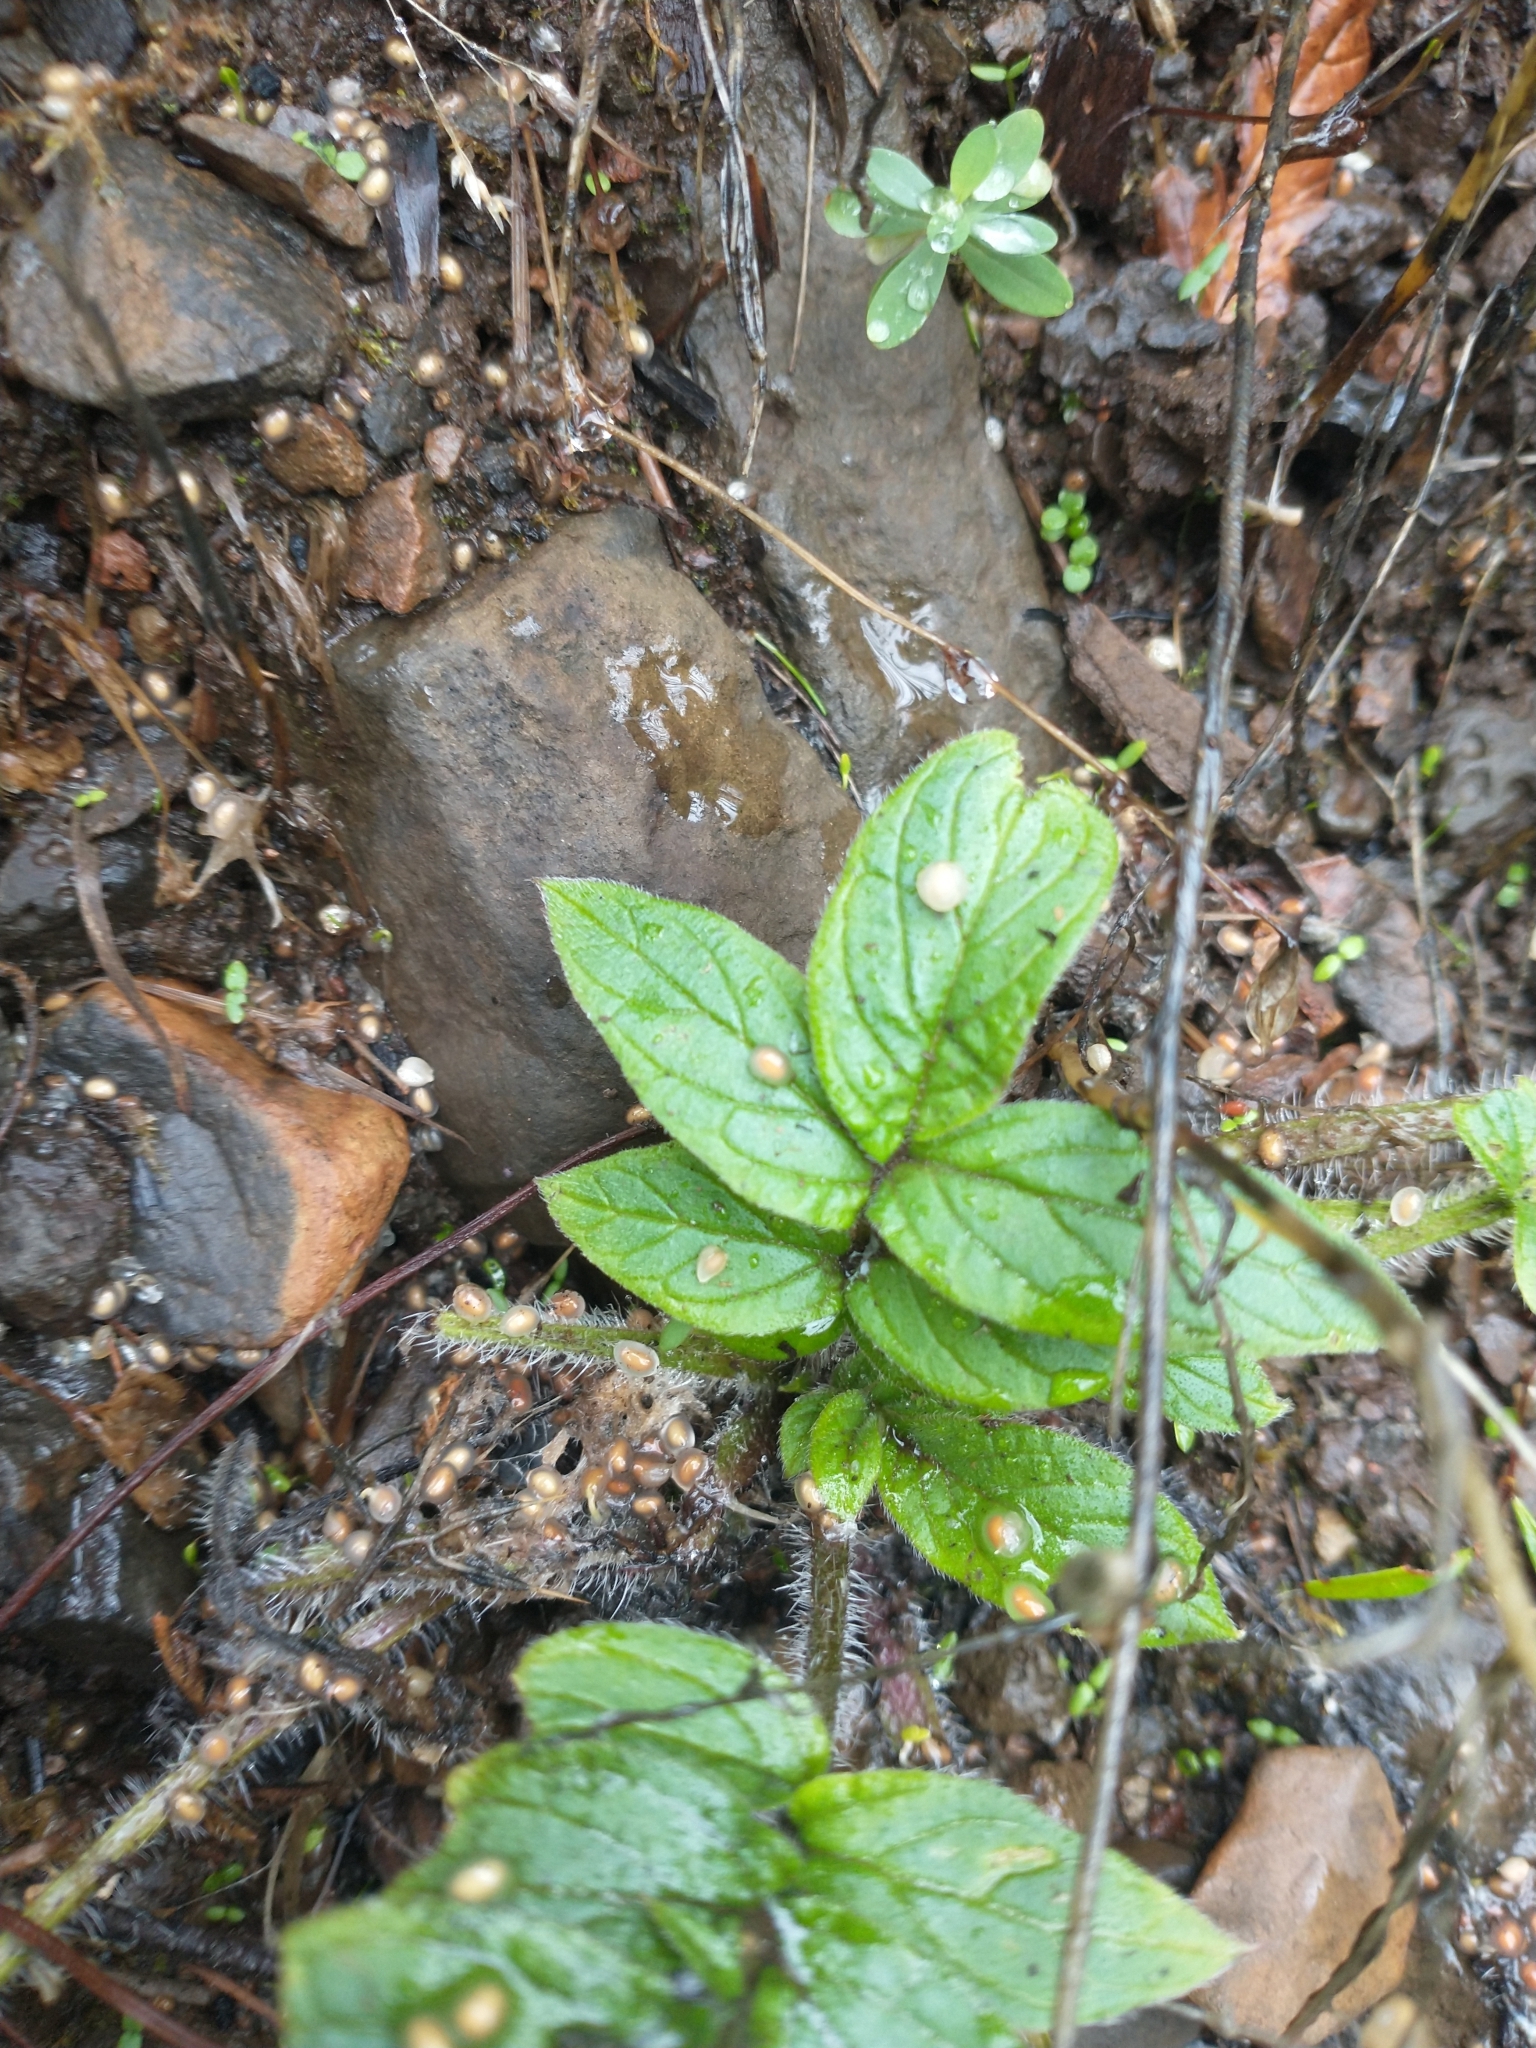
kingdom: Plantae
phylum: Tracheophyta
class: Magnoliopsida
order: Boraginales
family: Hydrophyllaceae
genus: Phacelia
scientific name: Phacelia nemoralis
